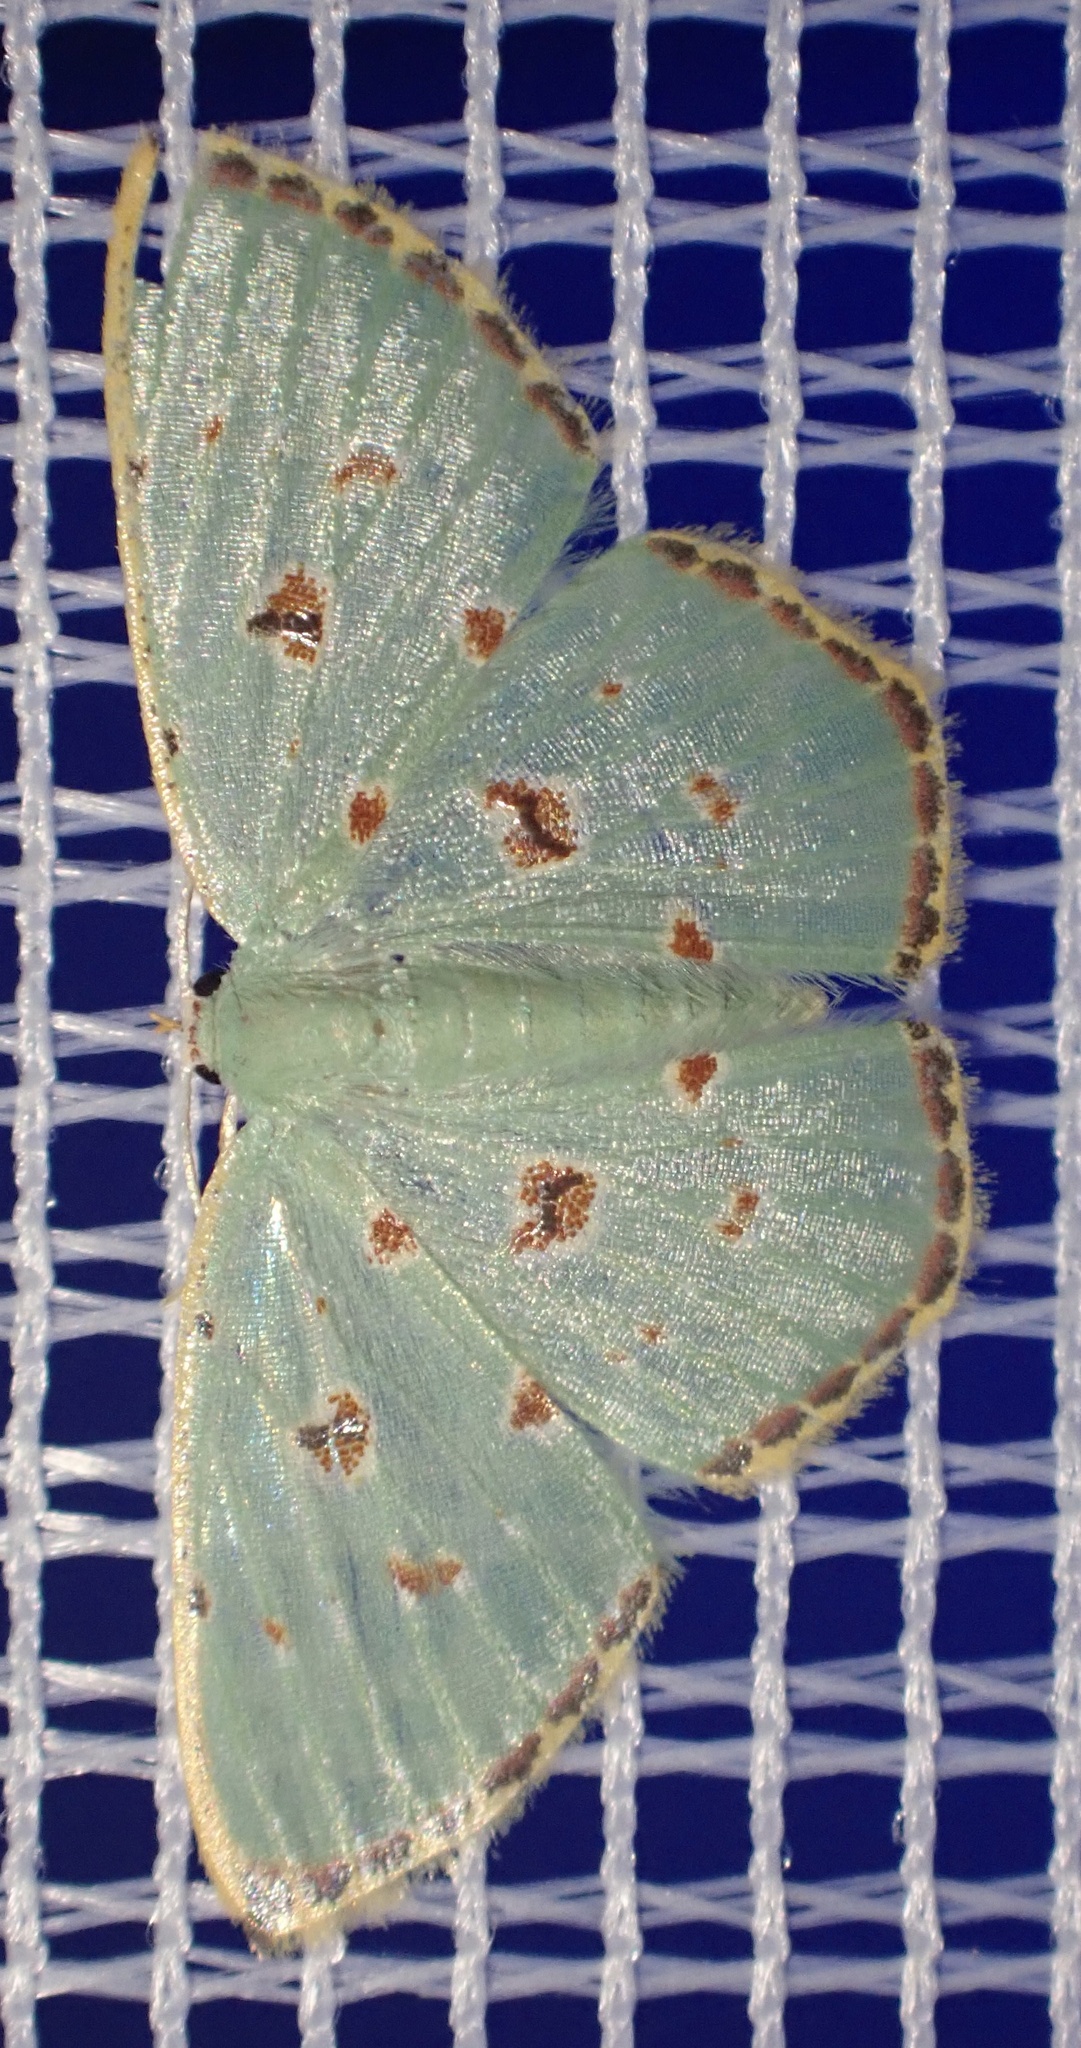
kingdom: Animalia
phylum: Arthropoda
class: Insecta
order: Lepidoptera
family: Geometridae
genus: Comostola
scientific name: Comostola laesaria
